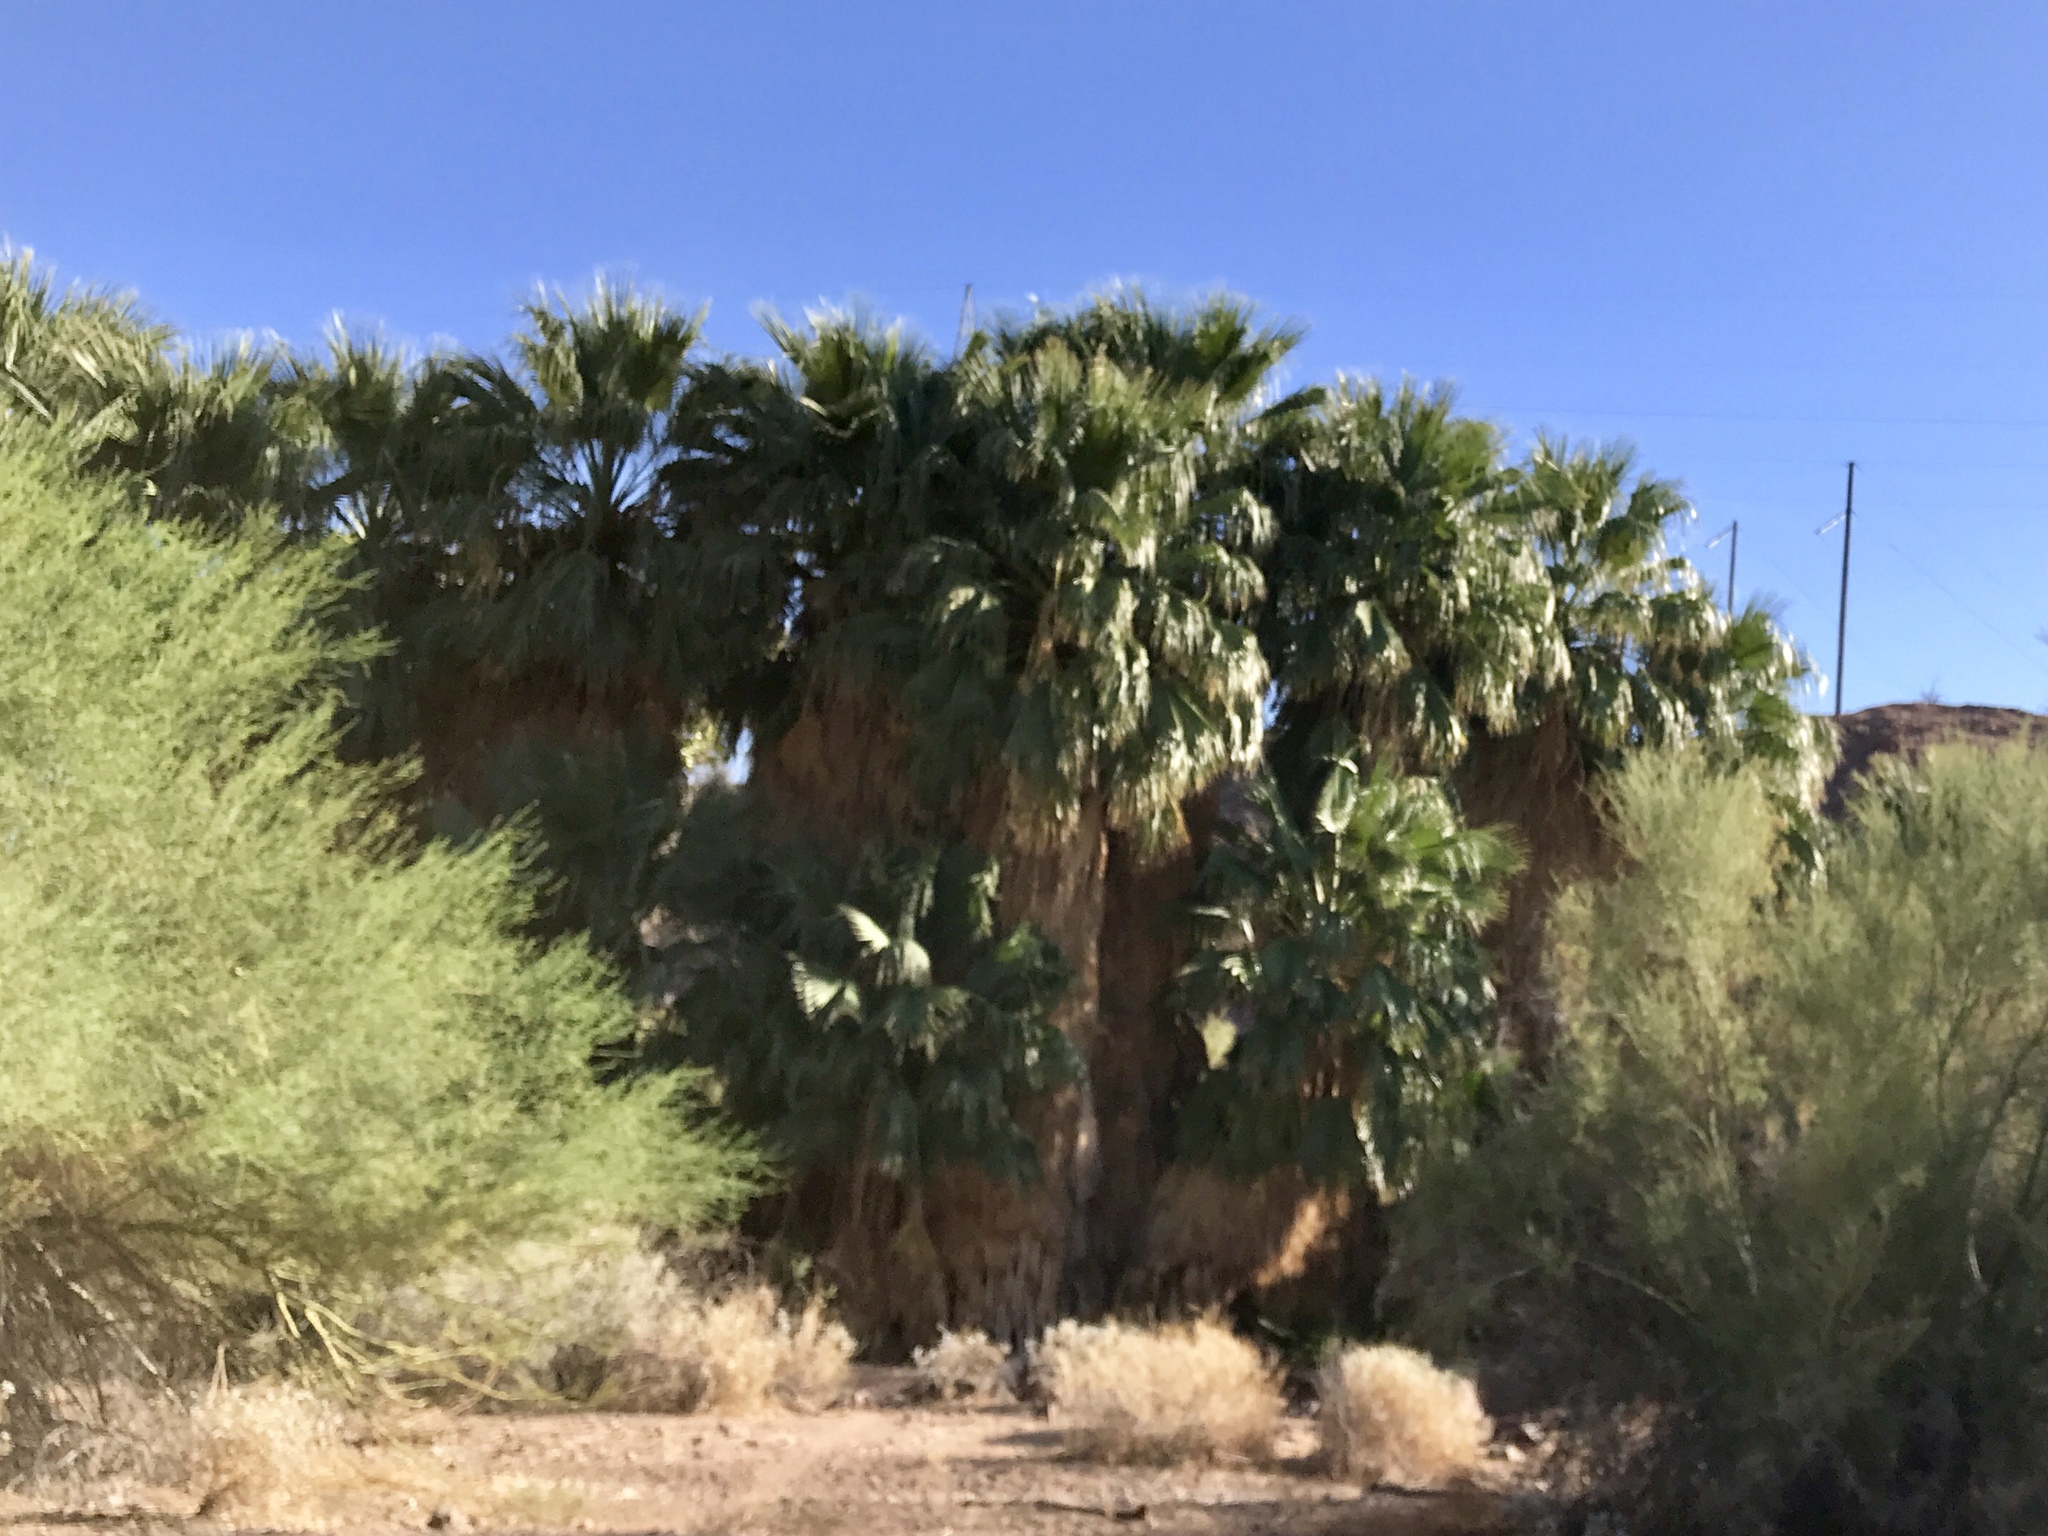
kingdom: Plantae
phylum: Tracheophyta
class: Liliopsida
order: Arecales
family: Arecaceae
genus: Washingtonia
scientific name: Washingtonia filifera
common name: California fan palm
